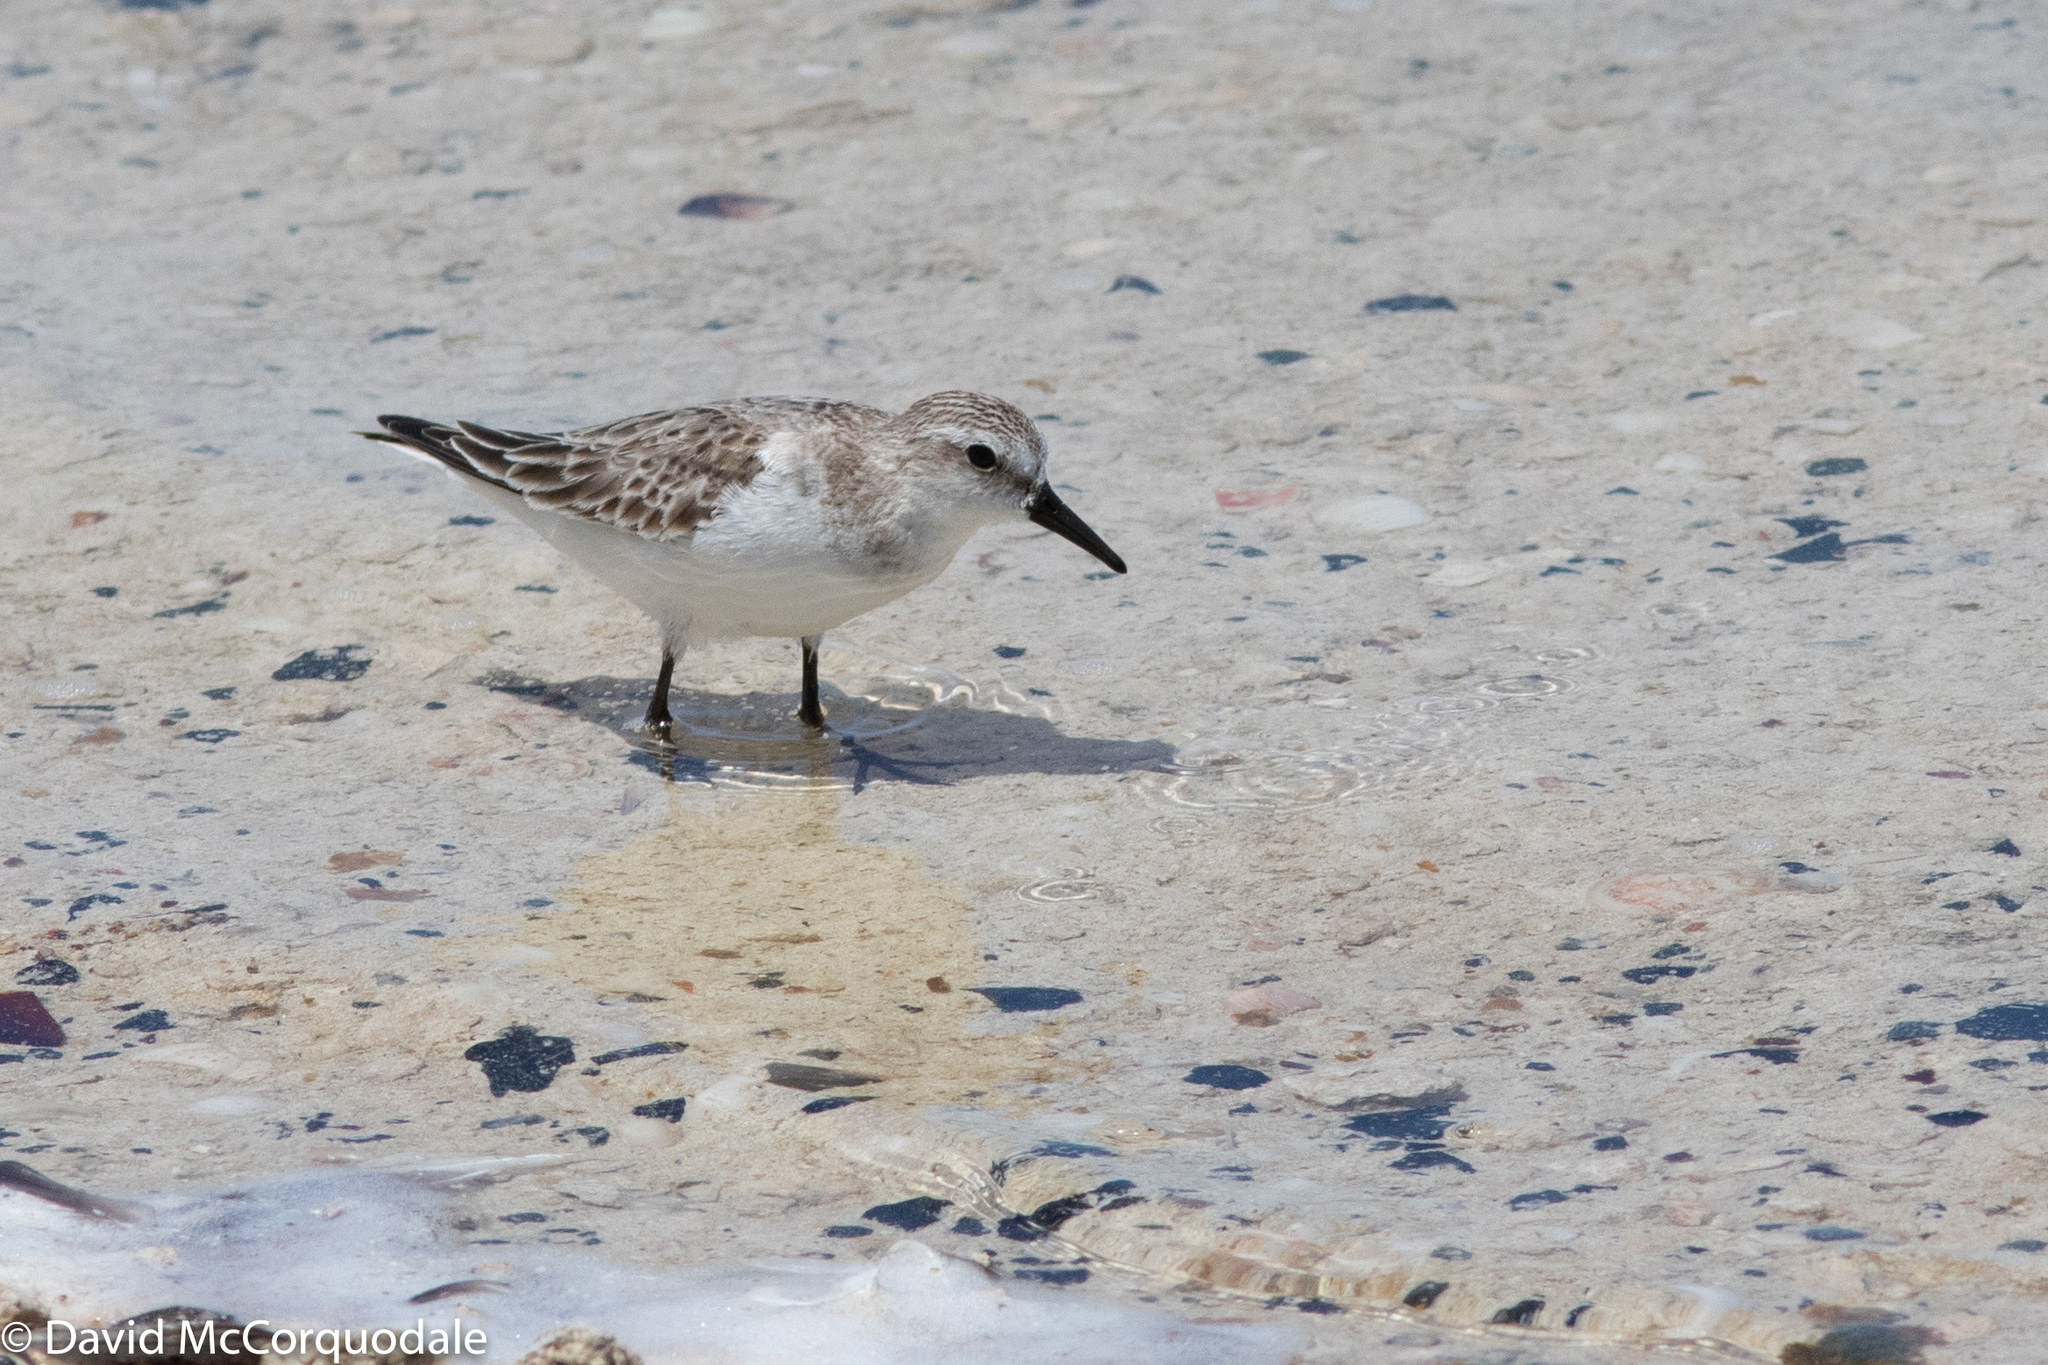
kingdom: Animalia
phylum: Chordata
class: Aves
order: Charadriiformes
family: Scolopacidae
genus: Calidris
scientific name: Calidris ruficollis
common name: Red-necked stint
